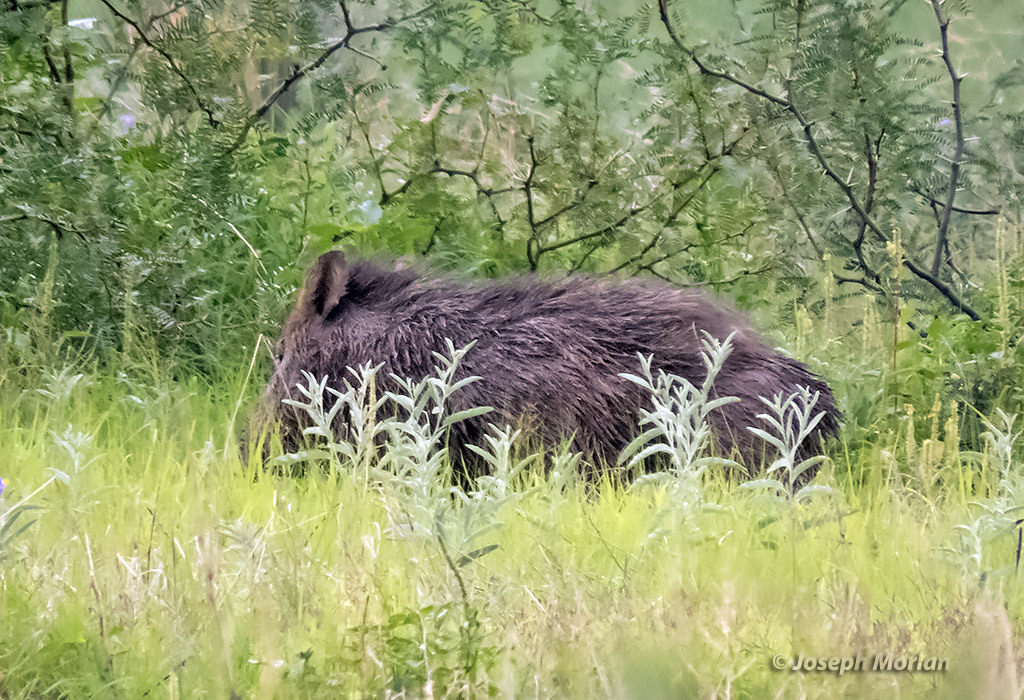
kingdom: Animalia
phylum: Chordata
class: Mammalia
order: Artiodactyla
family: Suidae
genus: Sus
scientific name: Sus scrofa
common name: Wild boar
